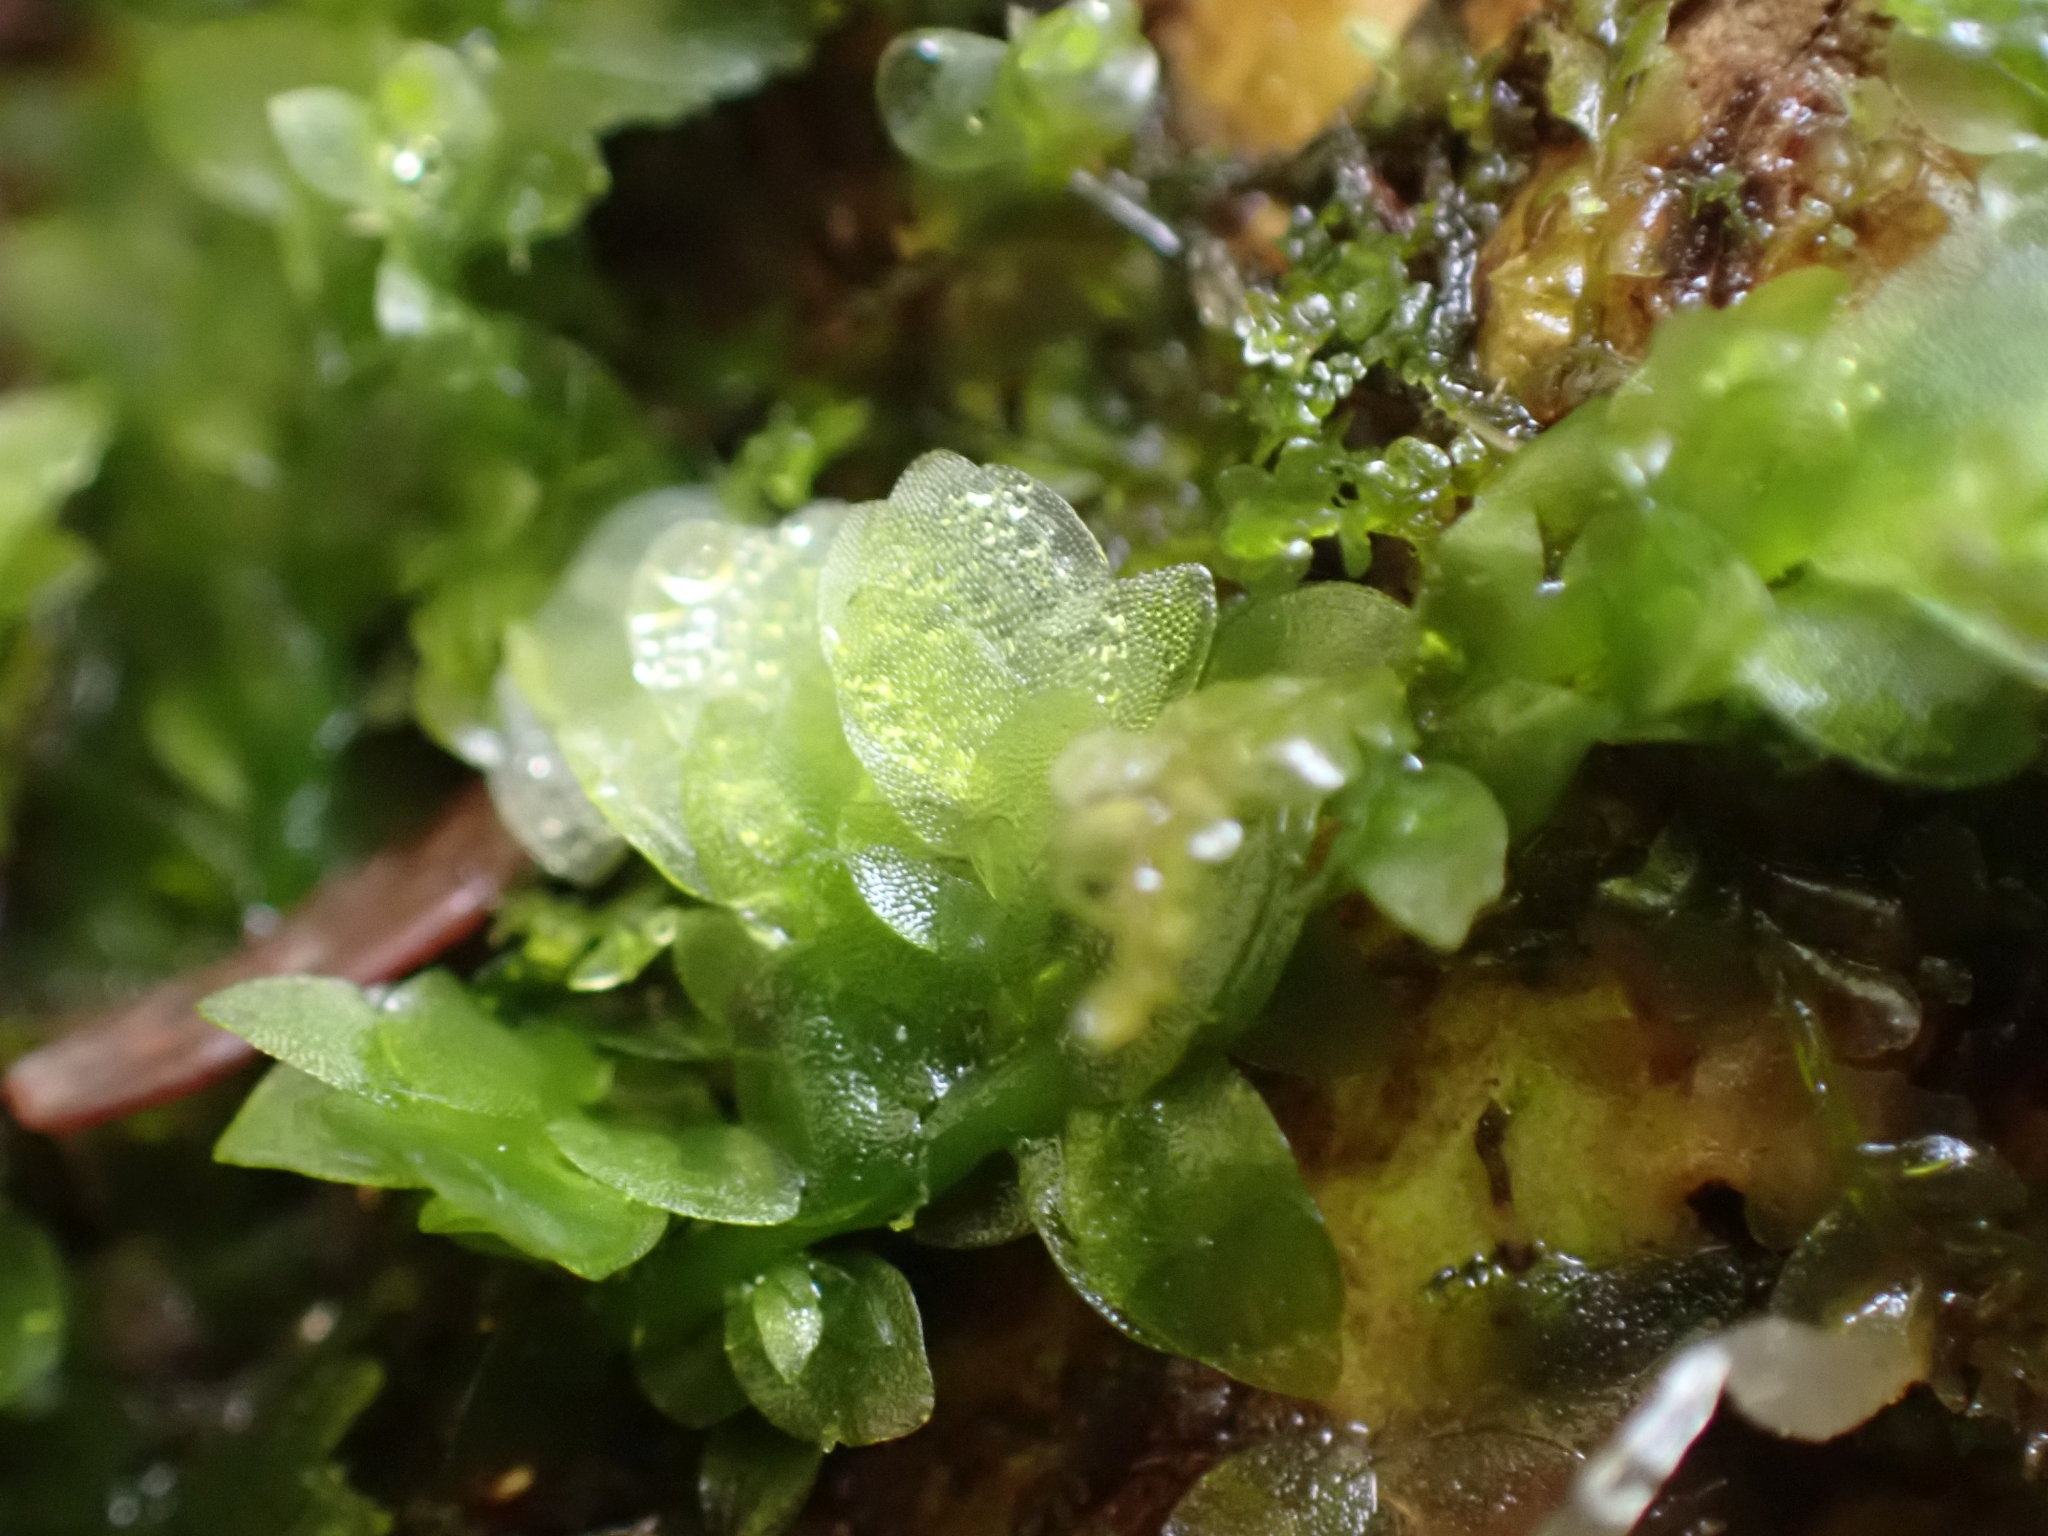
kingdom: Plantae
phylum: Bryophyta
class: Bryopsida
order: Hookeriales
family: Hookeriaceae
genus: Hookeria
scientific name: Hookeria lucens
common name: Shining hookeria
